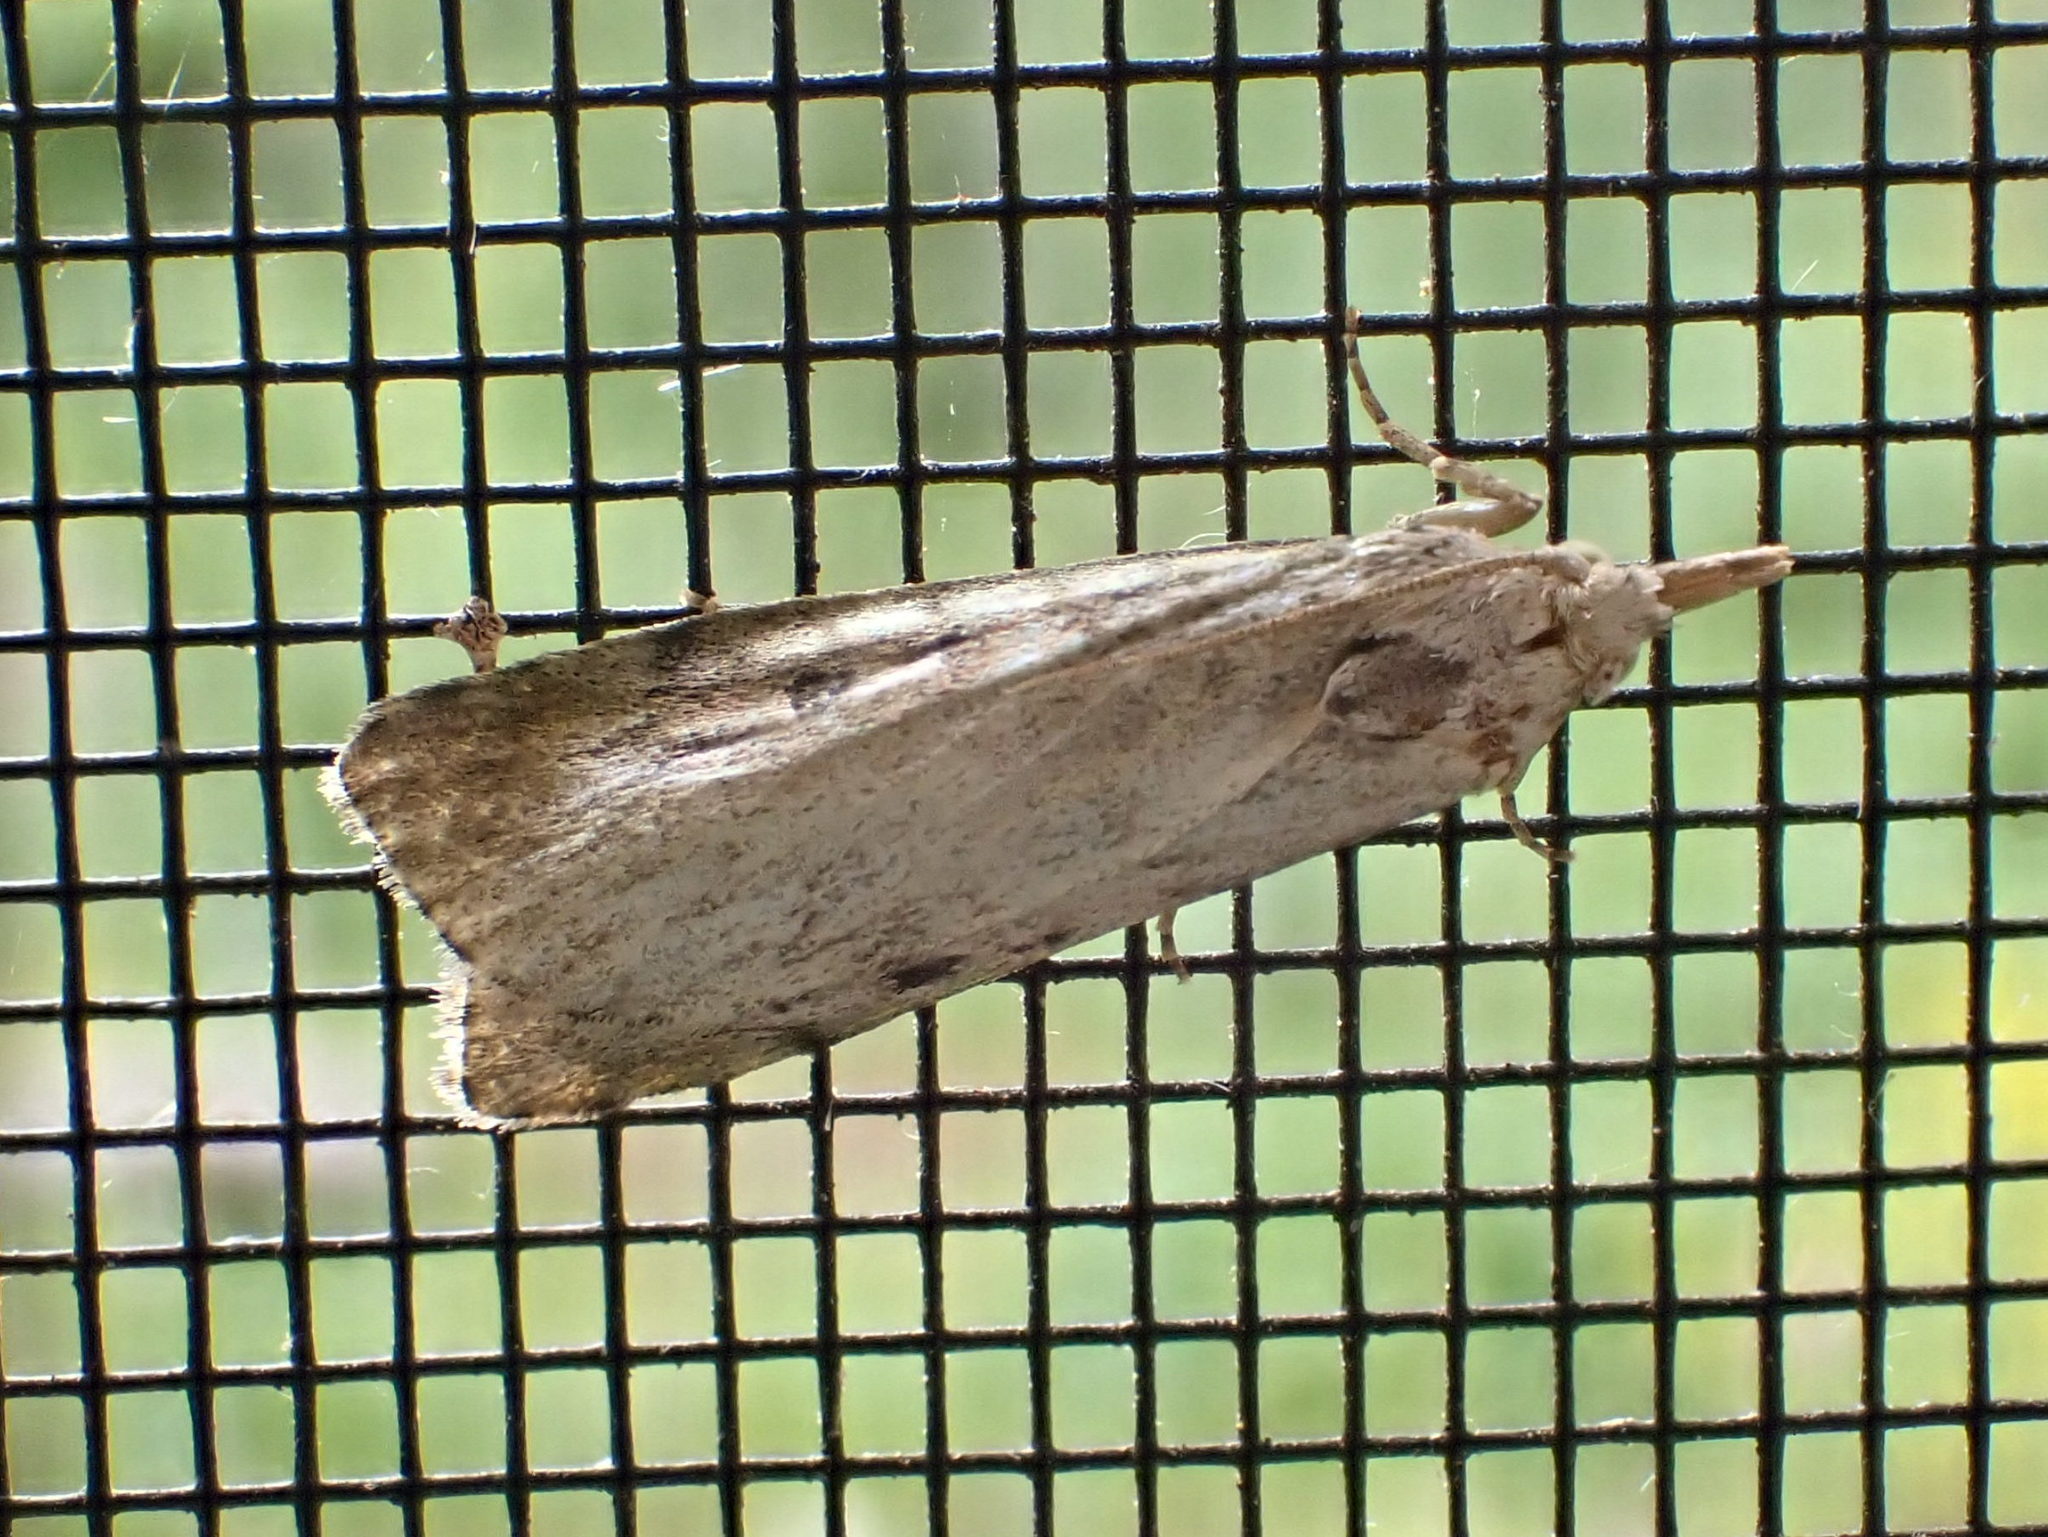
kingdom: Animalia
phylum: Arthropoda
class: Insecta
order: Lepidoptera
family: Pyralidae
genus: Aphomia
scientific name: Aphomia sociella
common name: Bee moth
